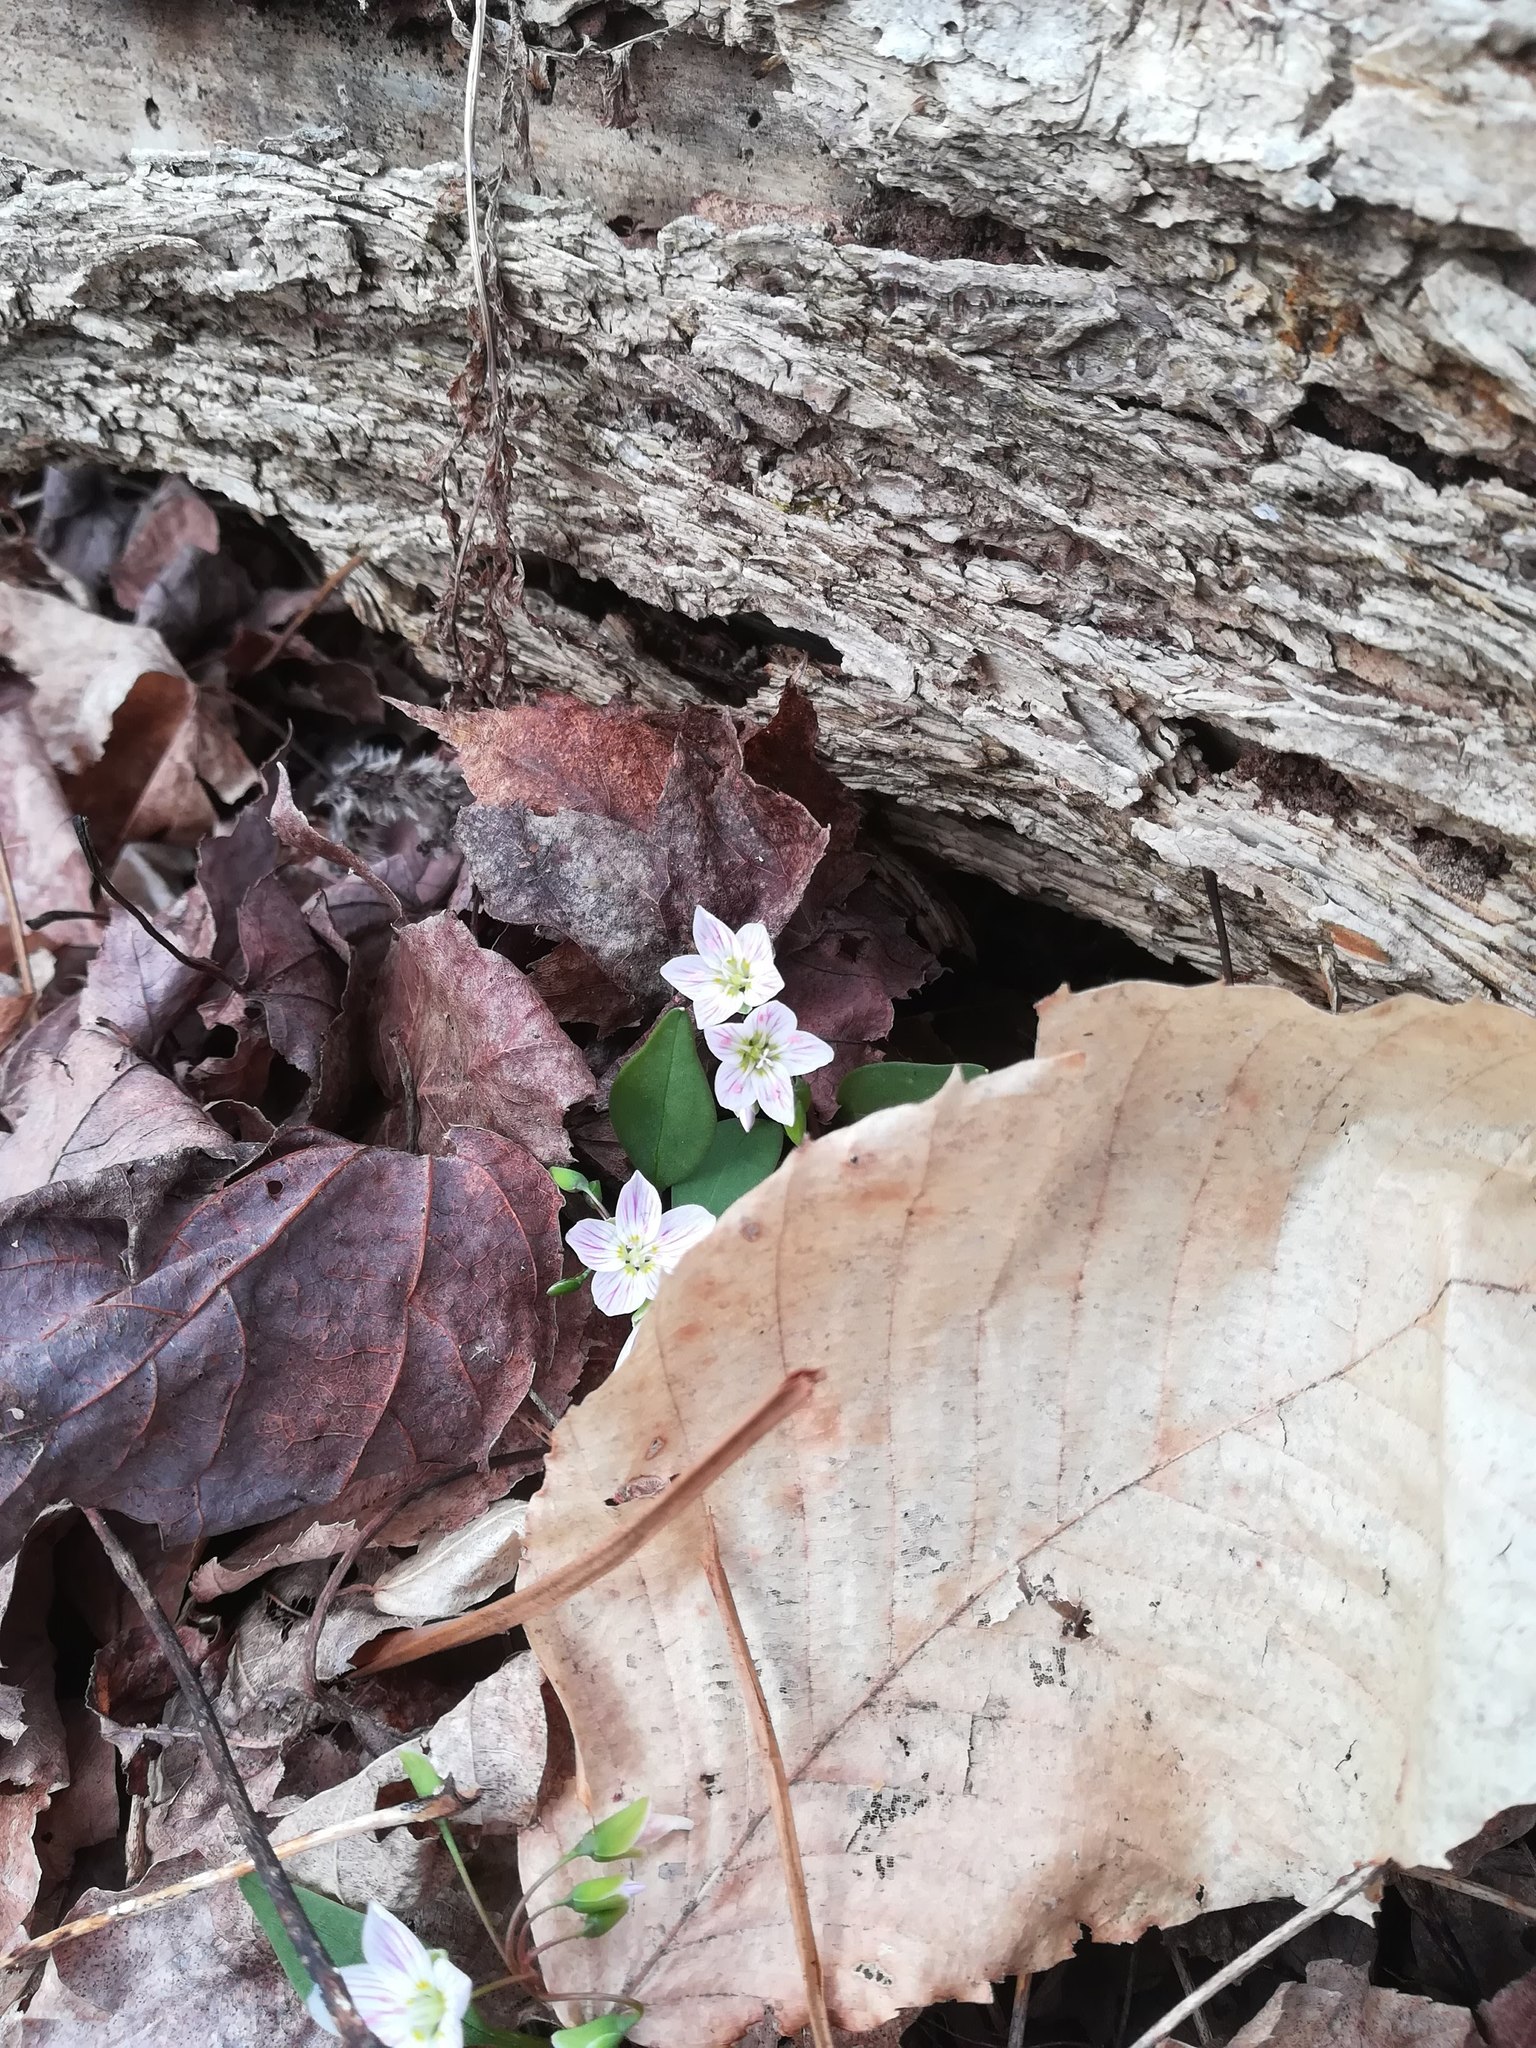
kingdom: Plantae
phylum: Tracheophyta
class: Magnoliopsida
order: Caryophyllales
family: Montiaceae
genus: Claytonia
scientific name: Claytonia caroliniana
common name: Carolina spring beauty
